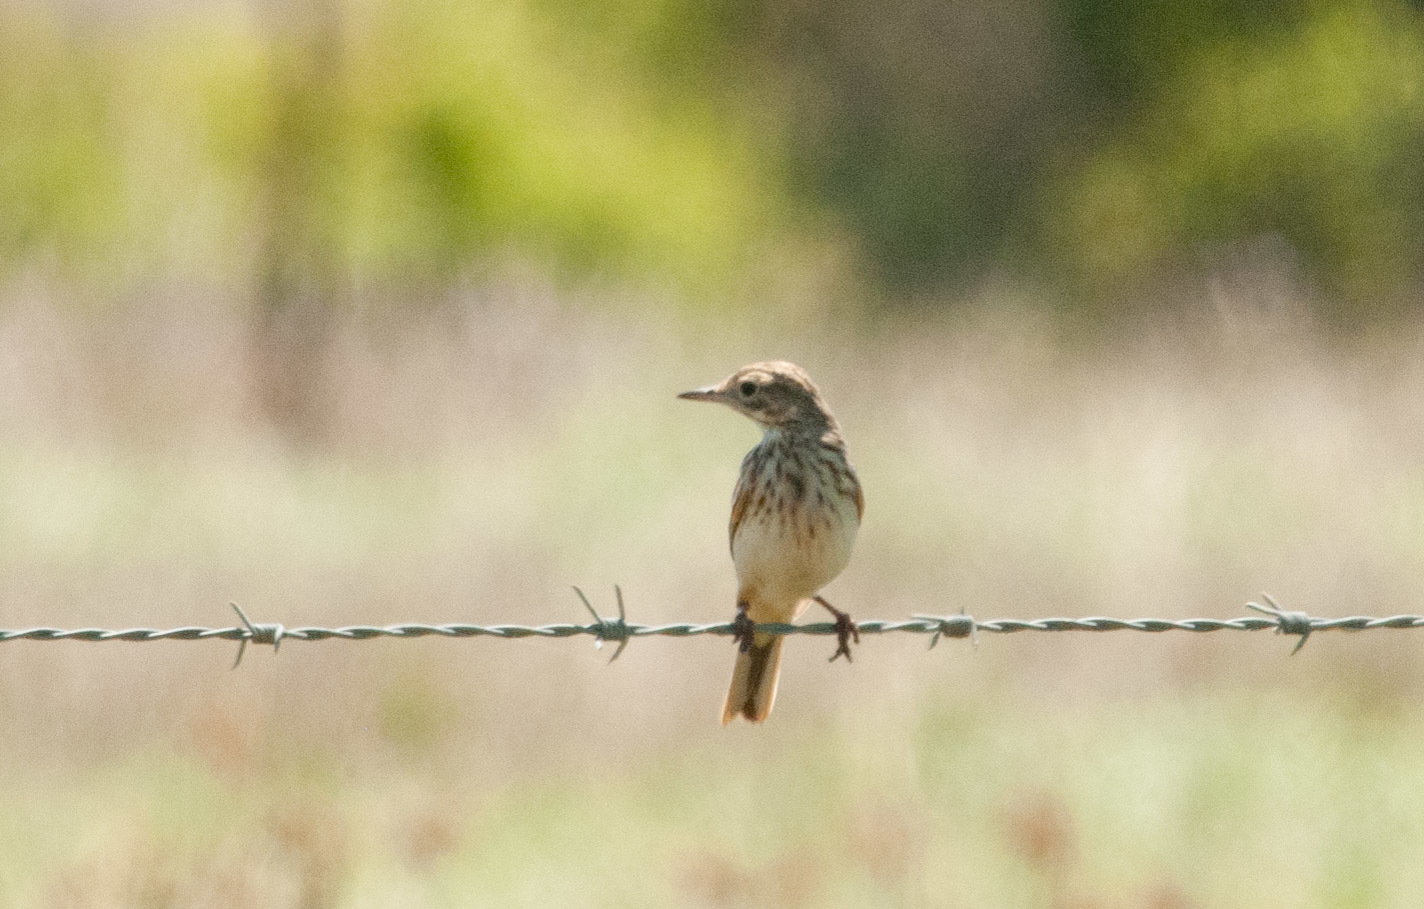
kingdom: Animalia
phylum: Chordata
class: Aves
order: Passeriformes
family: Motacillidae
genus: Anthus
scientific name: Anthus australis
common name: Australian pipit
